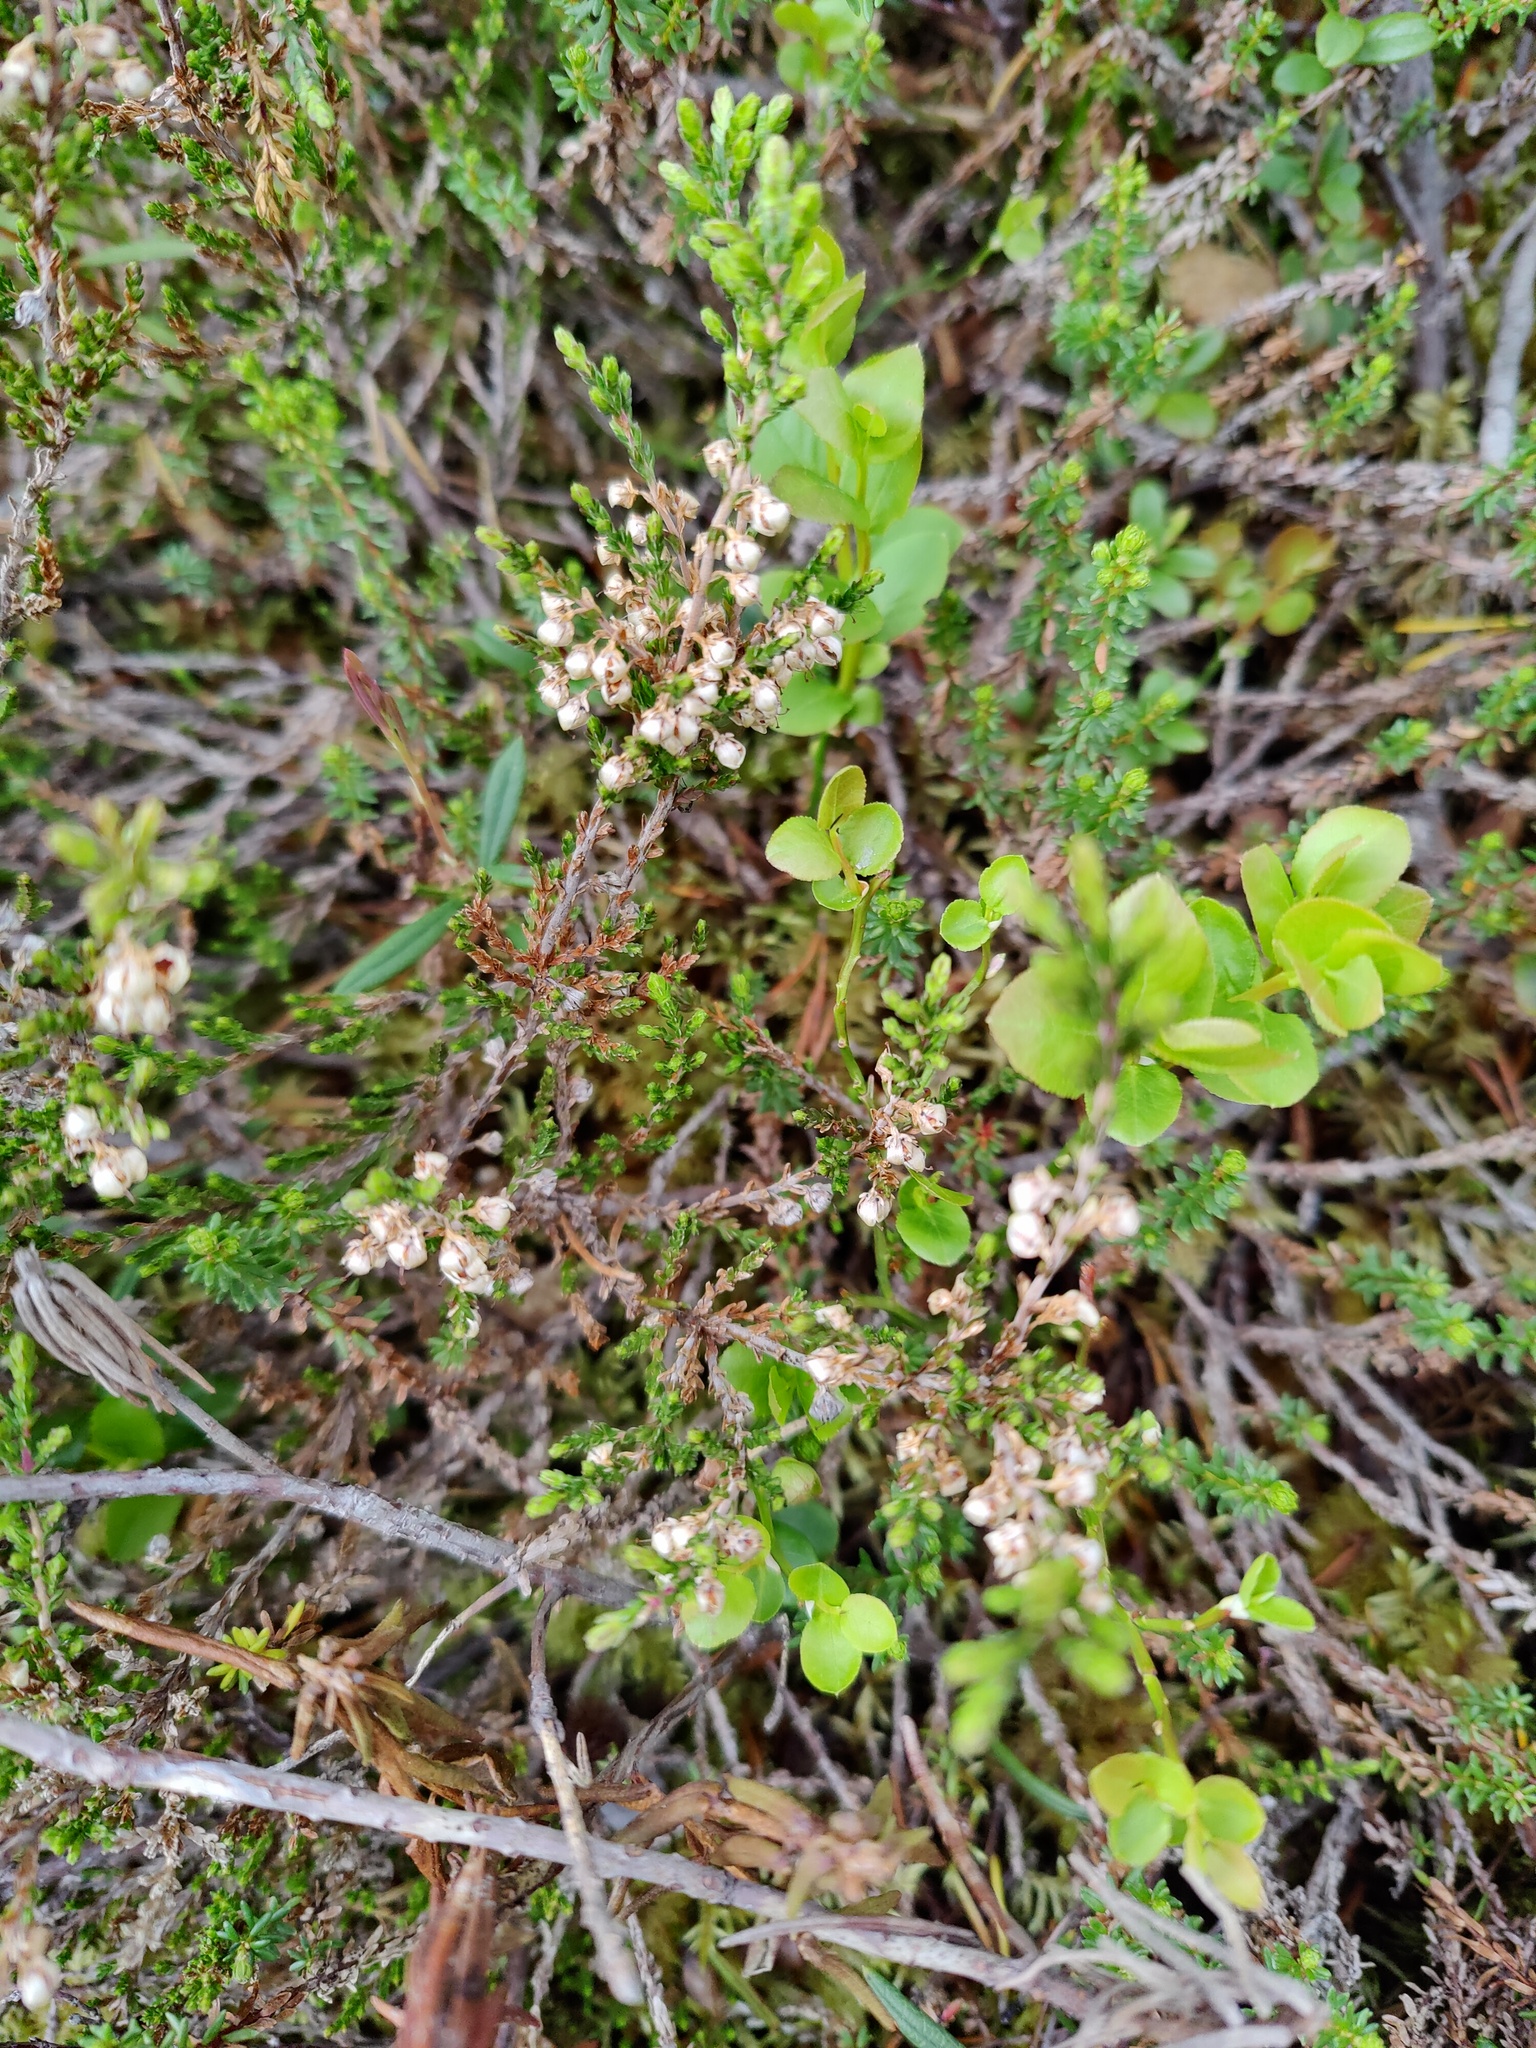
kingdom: Plantae
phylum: Tracheophyta
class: Magnoliopsida
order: Ericales
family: Ericaceae
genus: Calluna
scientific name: Calluna vulgaris
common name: Heather
